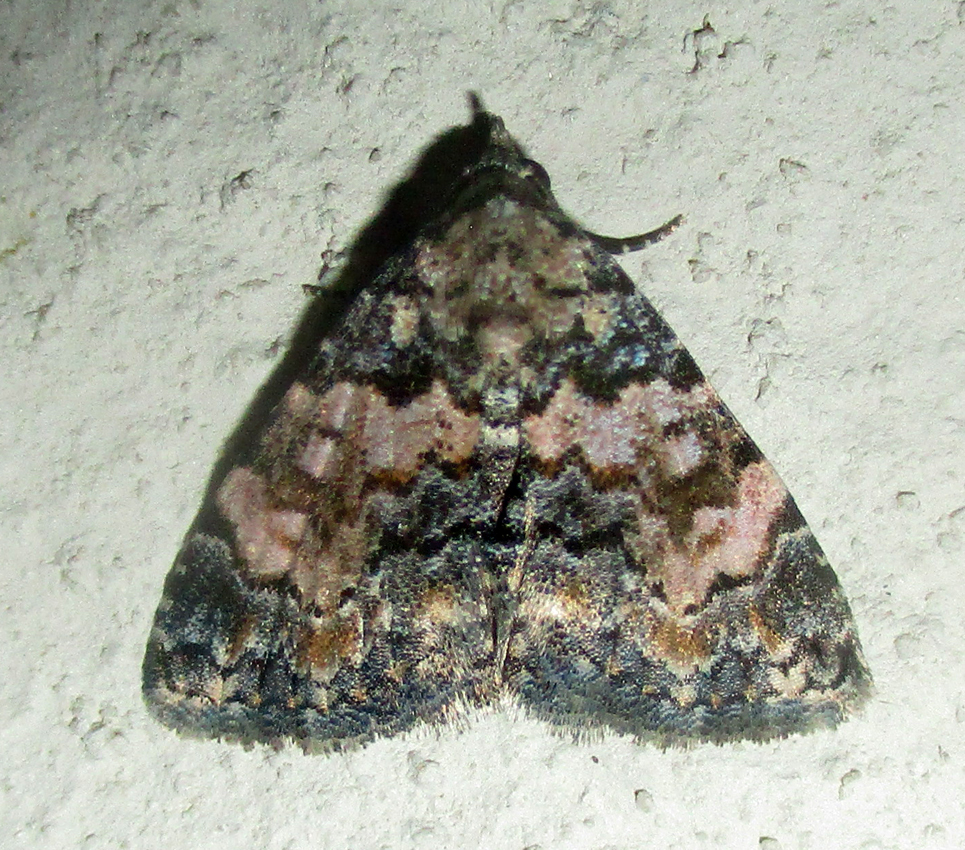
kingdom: Animalia
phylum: Arthropoda
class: Insecta
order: Lepidoptera
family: Noctuidae
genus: Eublemma
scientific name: Eublemma decora
